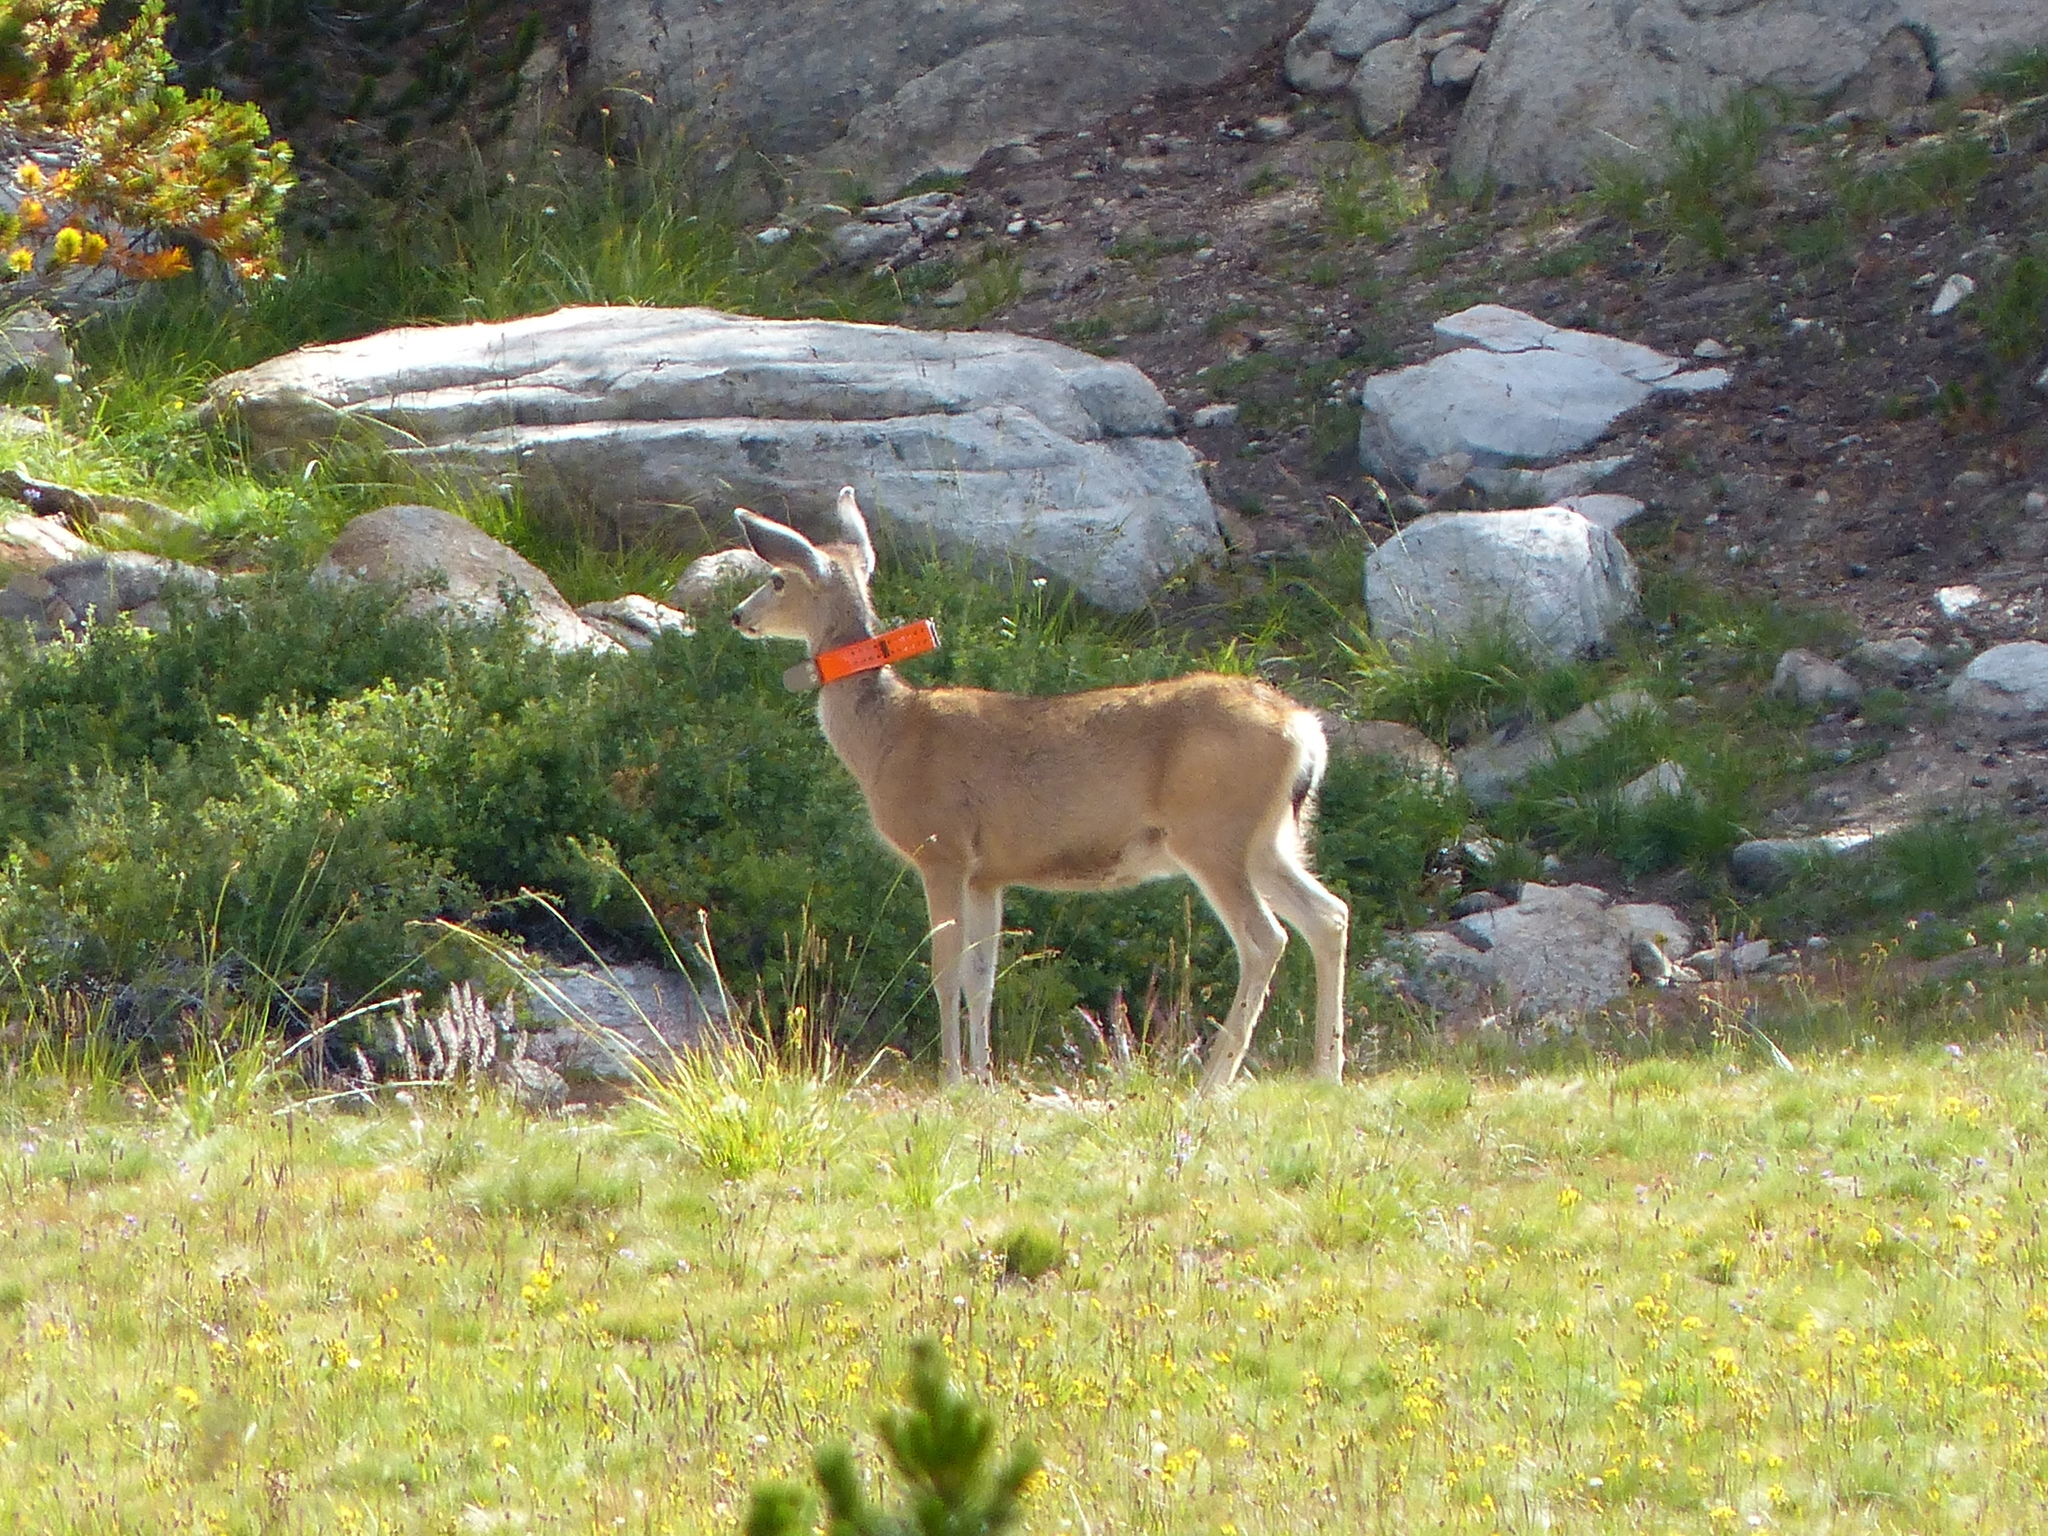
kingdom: Animalia
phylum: Chordata
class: Mammalia
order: Artiodactyla
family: Cervidae
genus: Odocoileus
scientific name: Odocoileus hemionus
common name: Mule deer
